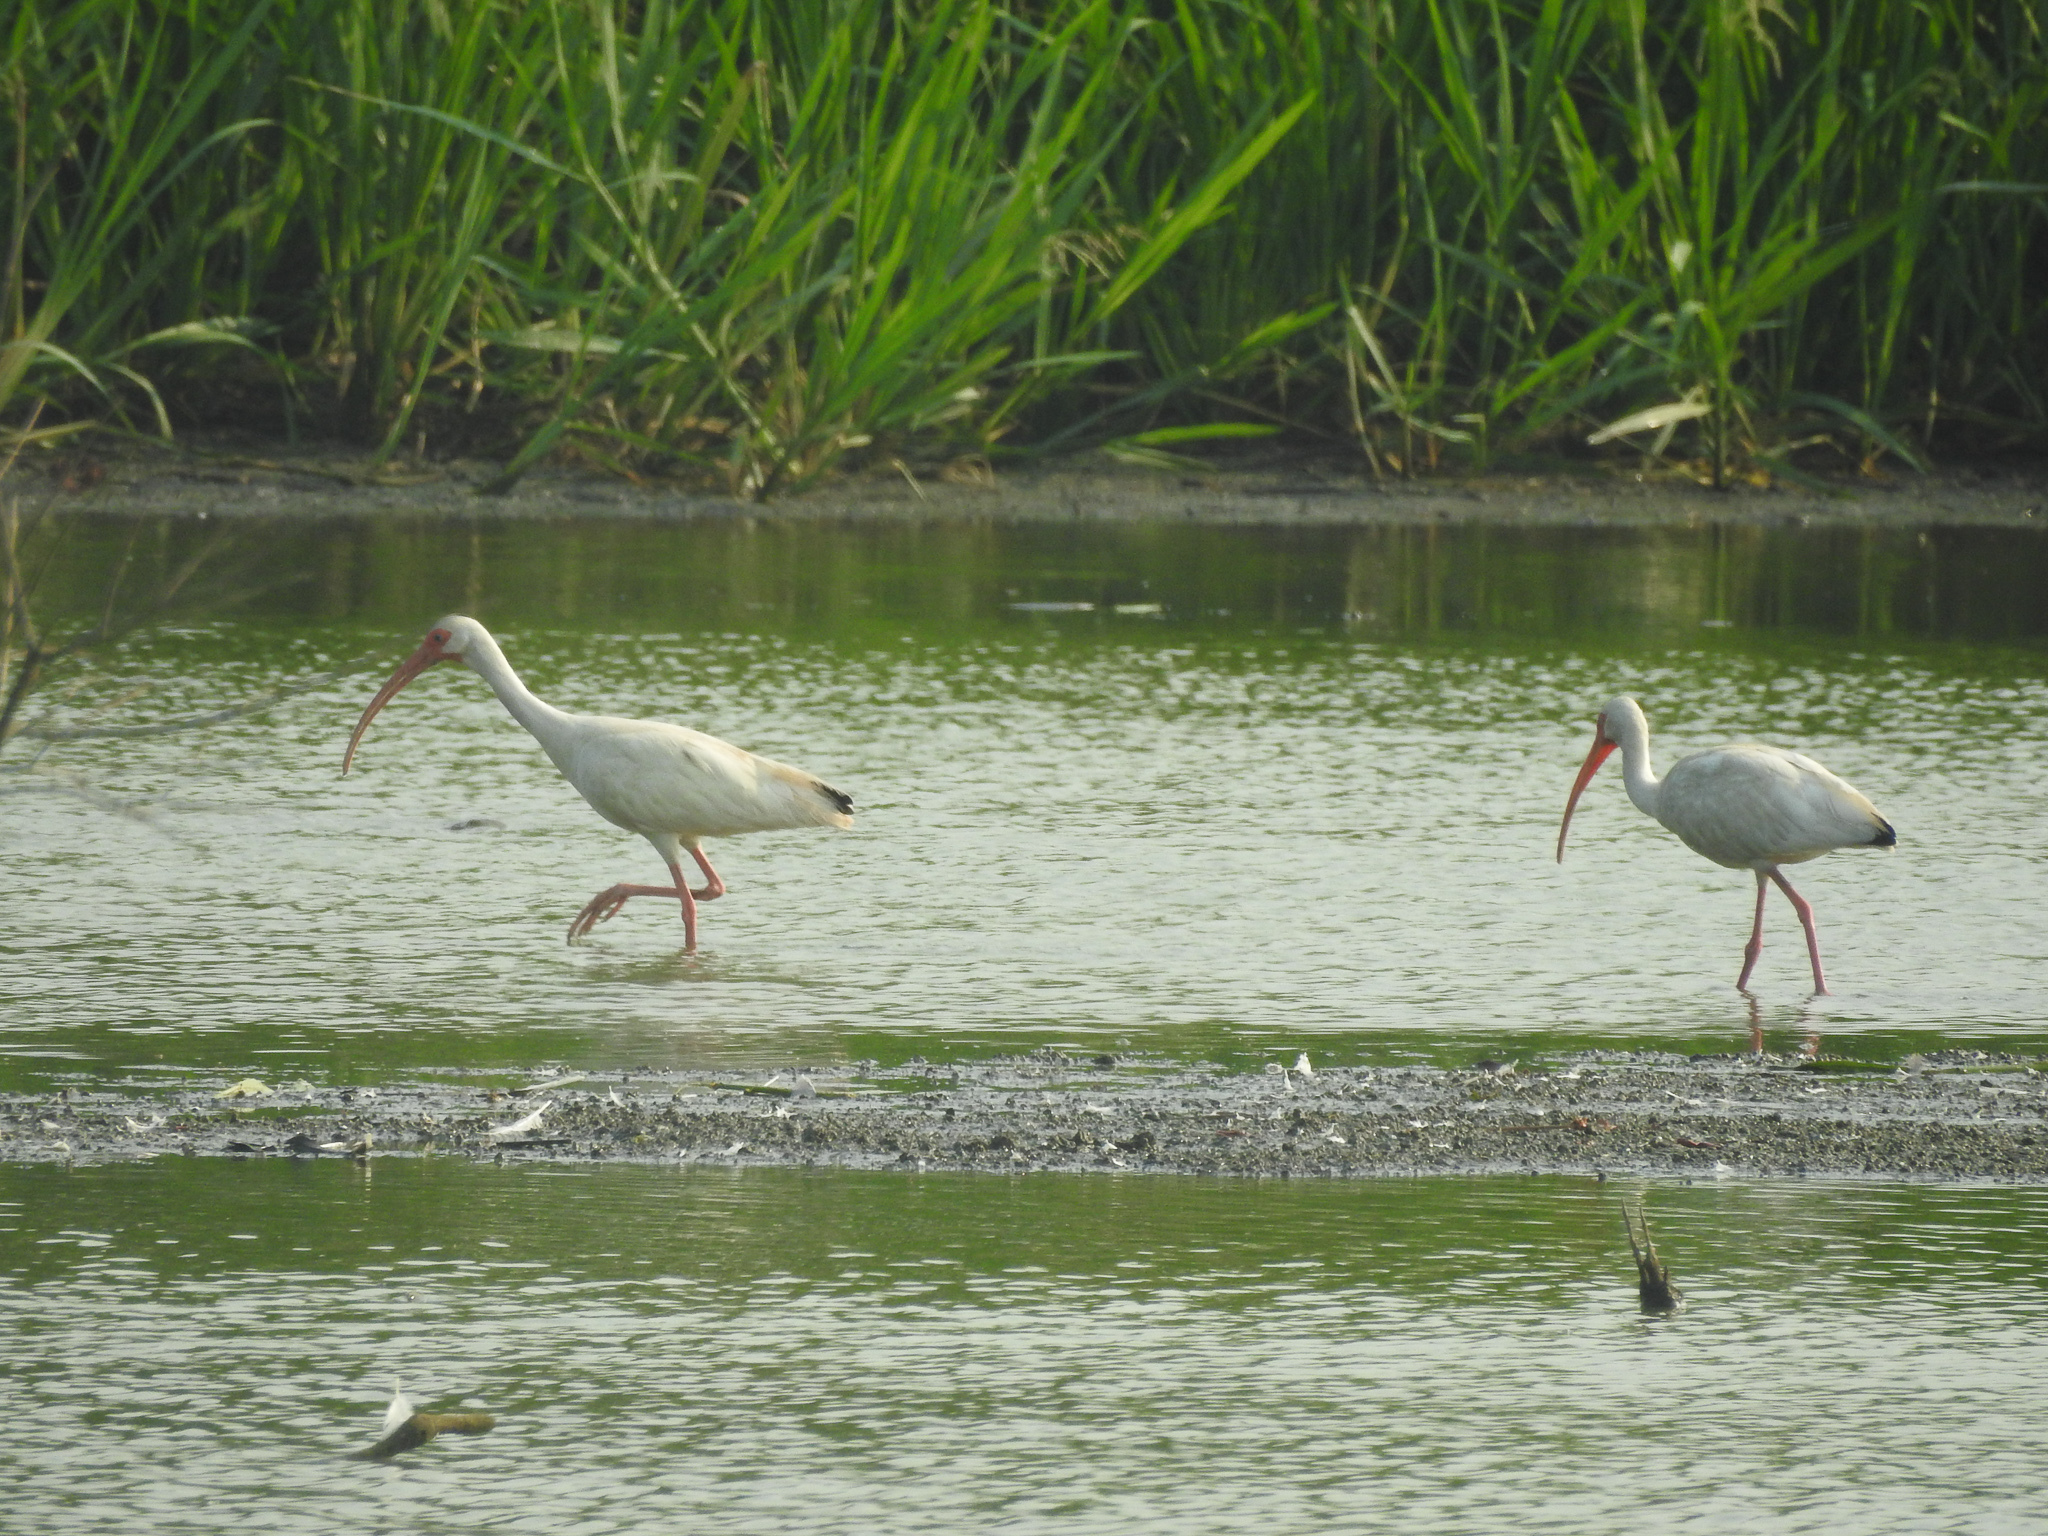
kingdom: Animalia
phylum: Chordata
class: Aves
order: Pelecaniformes
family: Threskiornithidae
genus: Eudocimus
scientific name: Eudocimus albus
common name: White ibis
